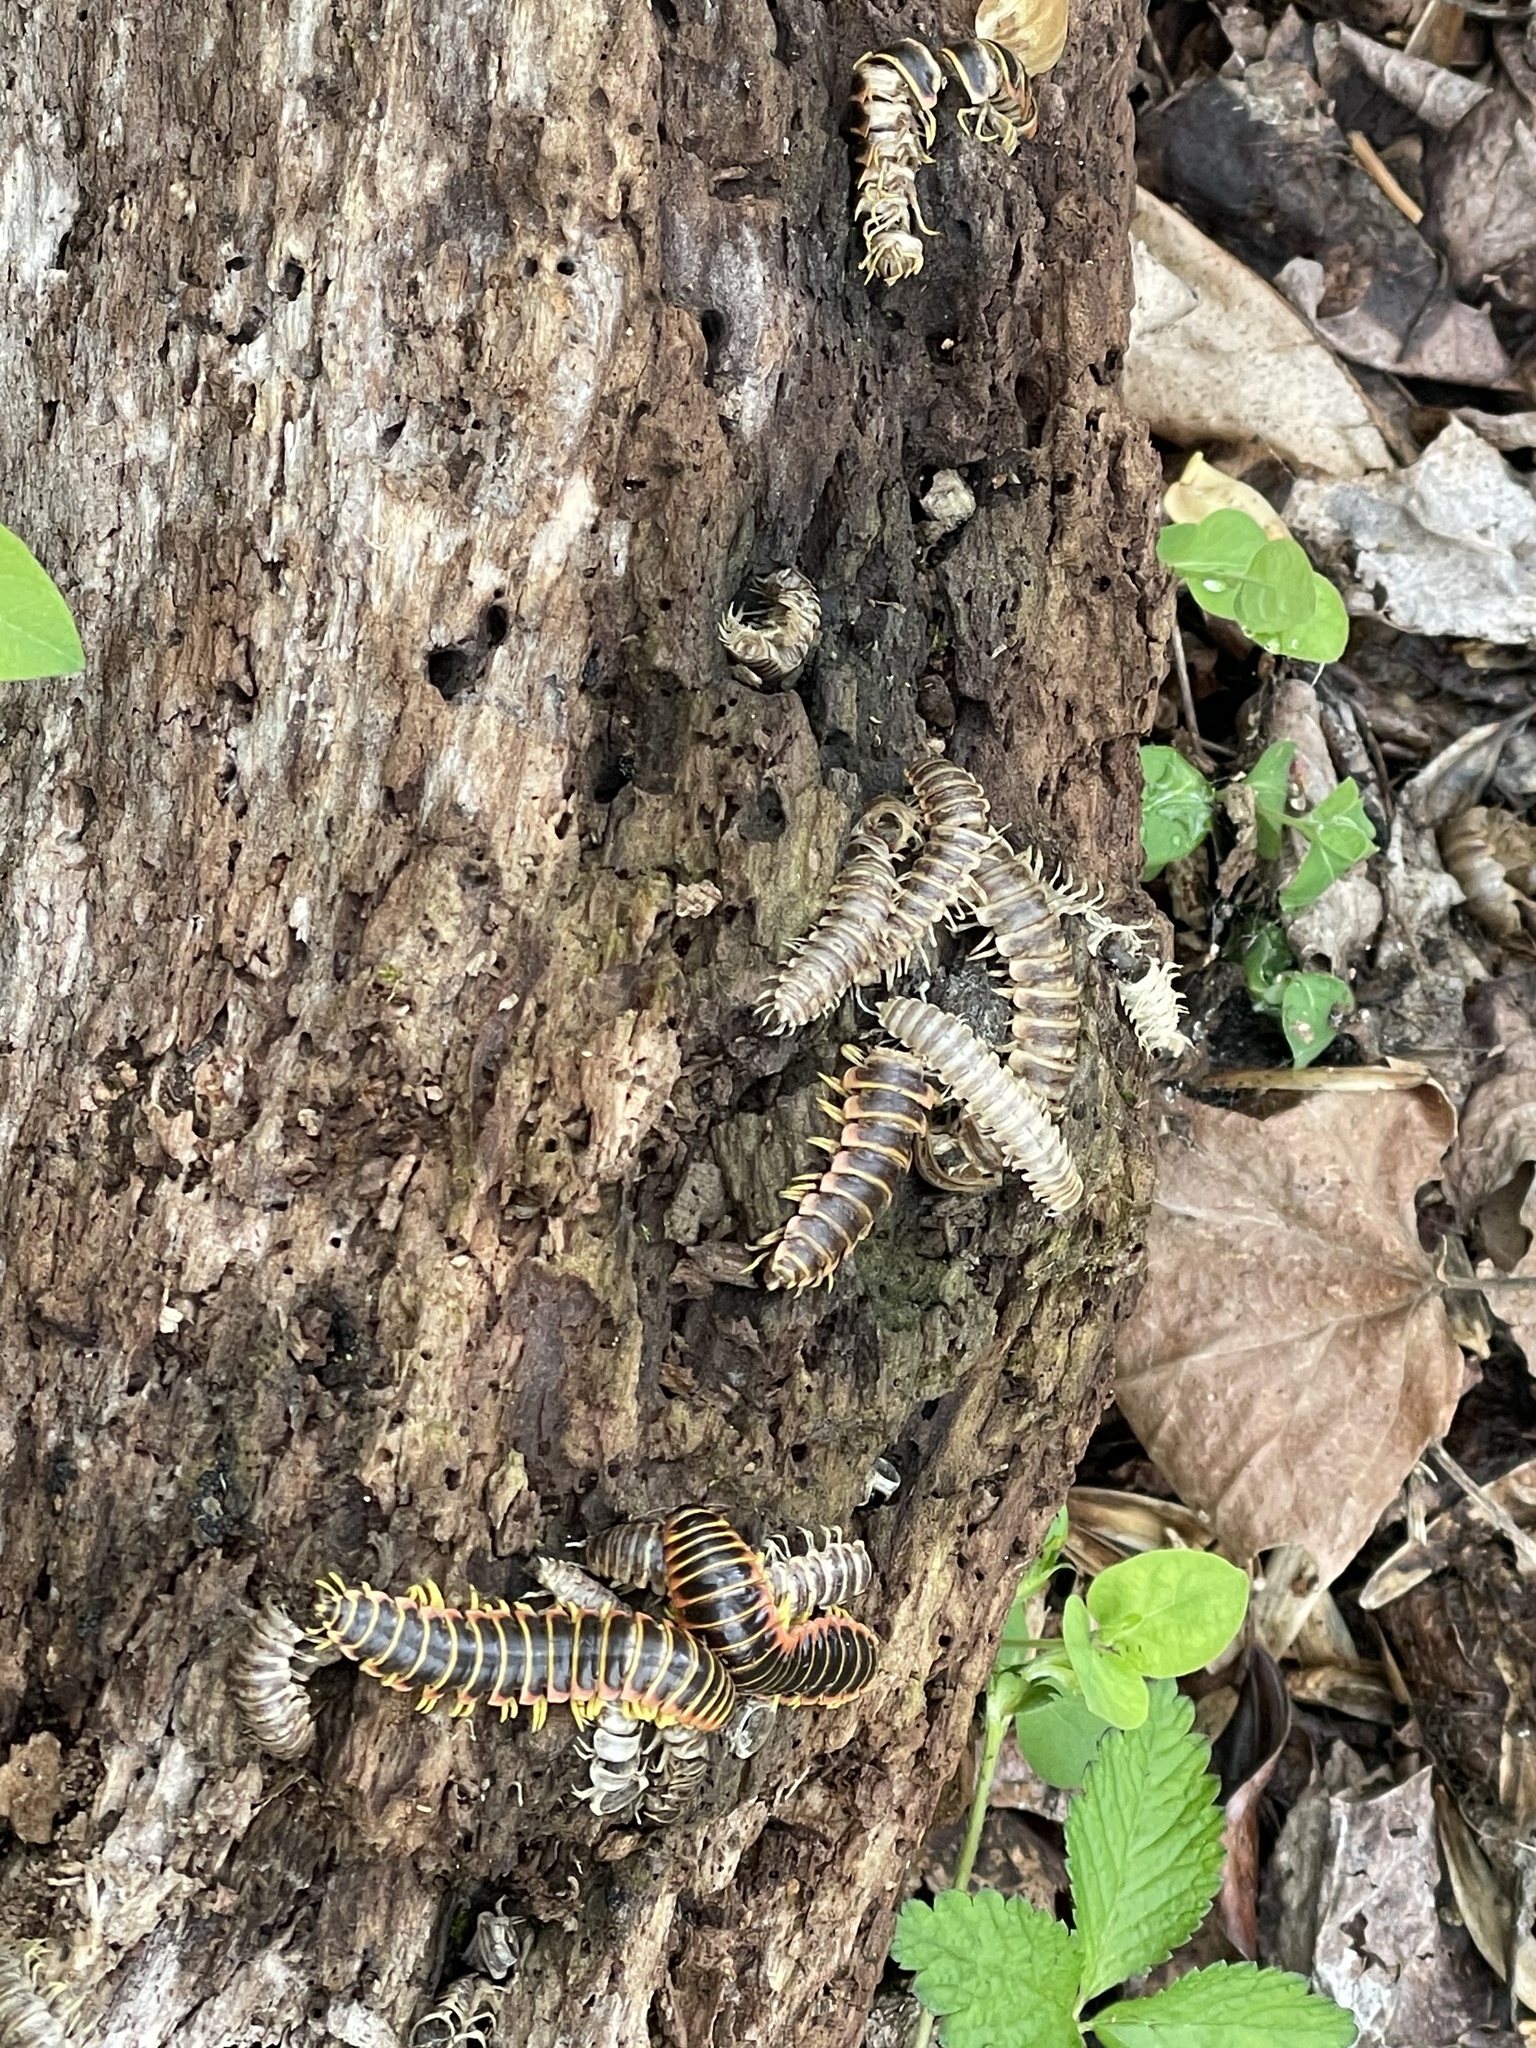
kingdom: Fungi
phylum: Entomophthoromycota
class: Entomophthoromycetes
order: Entomophthorales
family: Entomophthoraceae
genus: Arthrophaga
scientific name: Arthrophaga myriapodina
